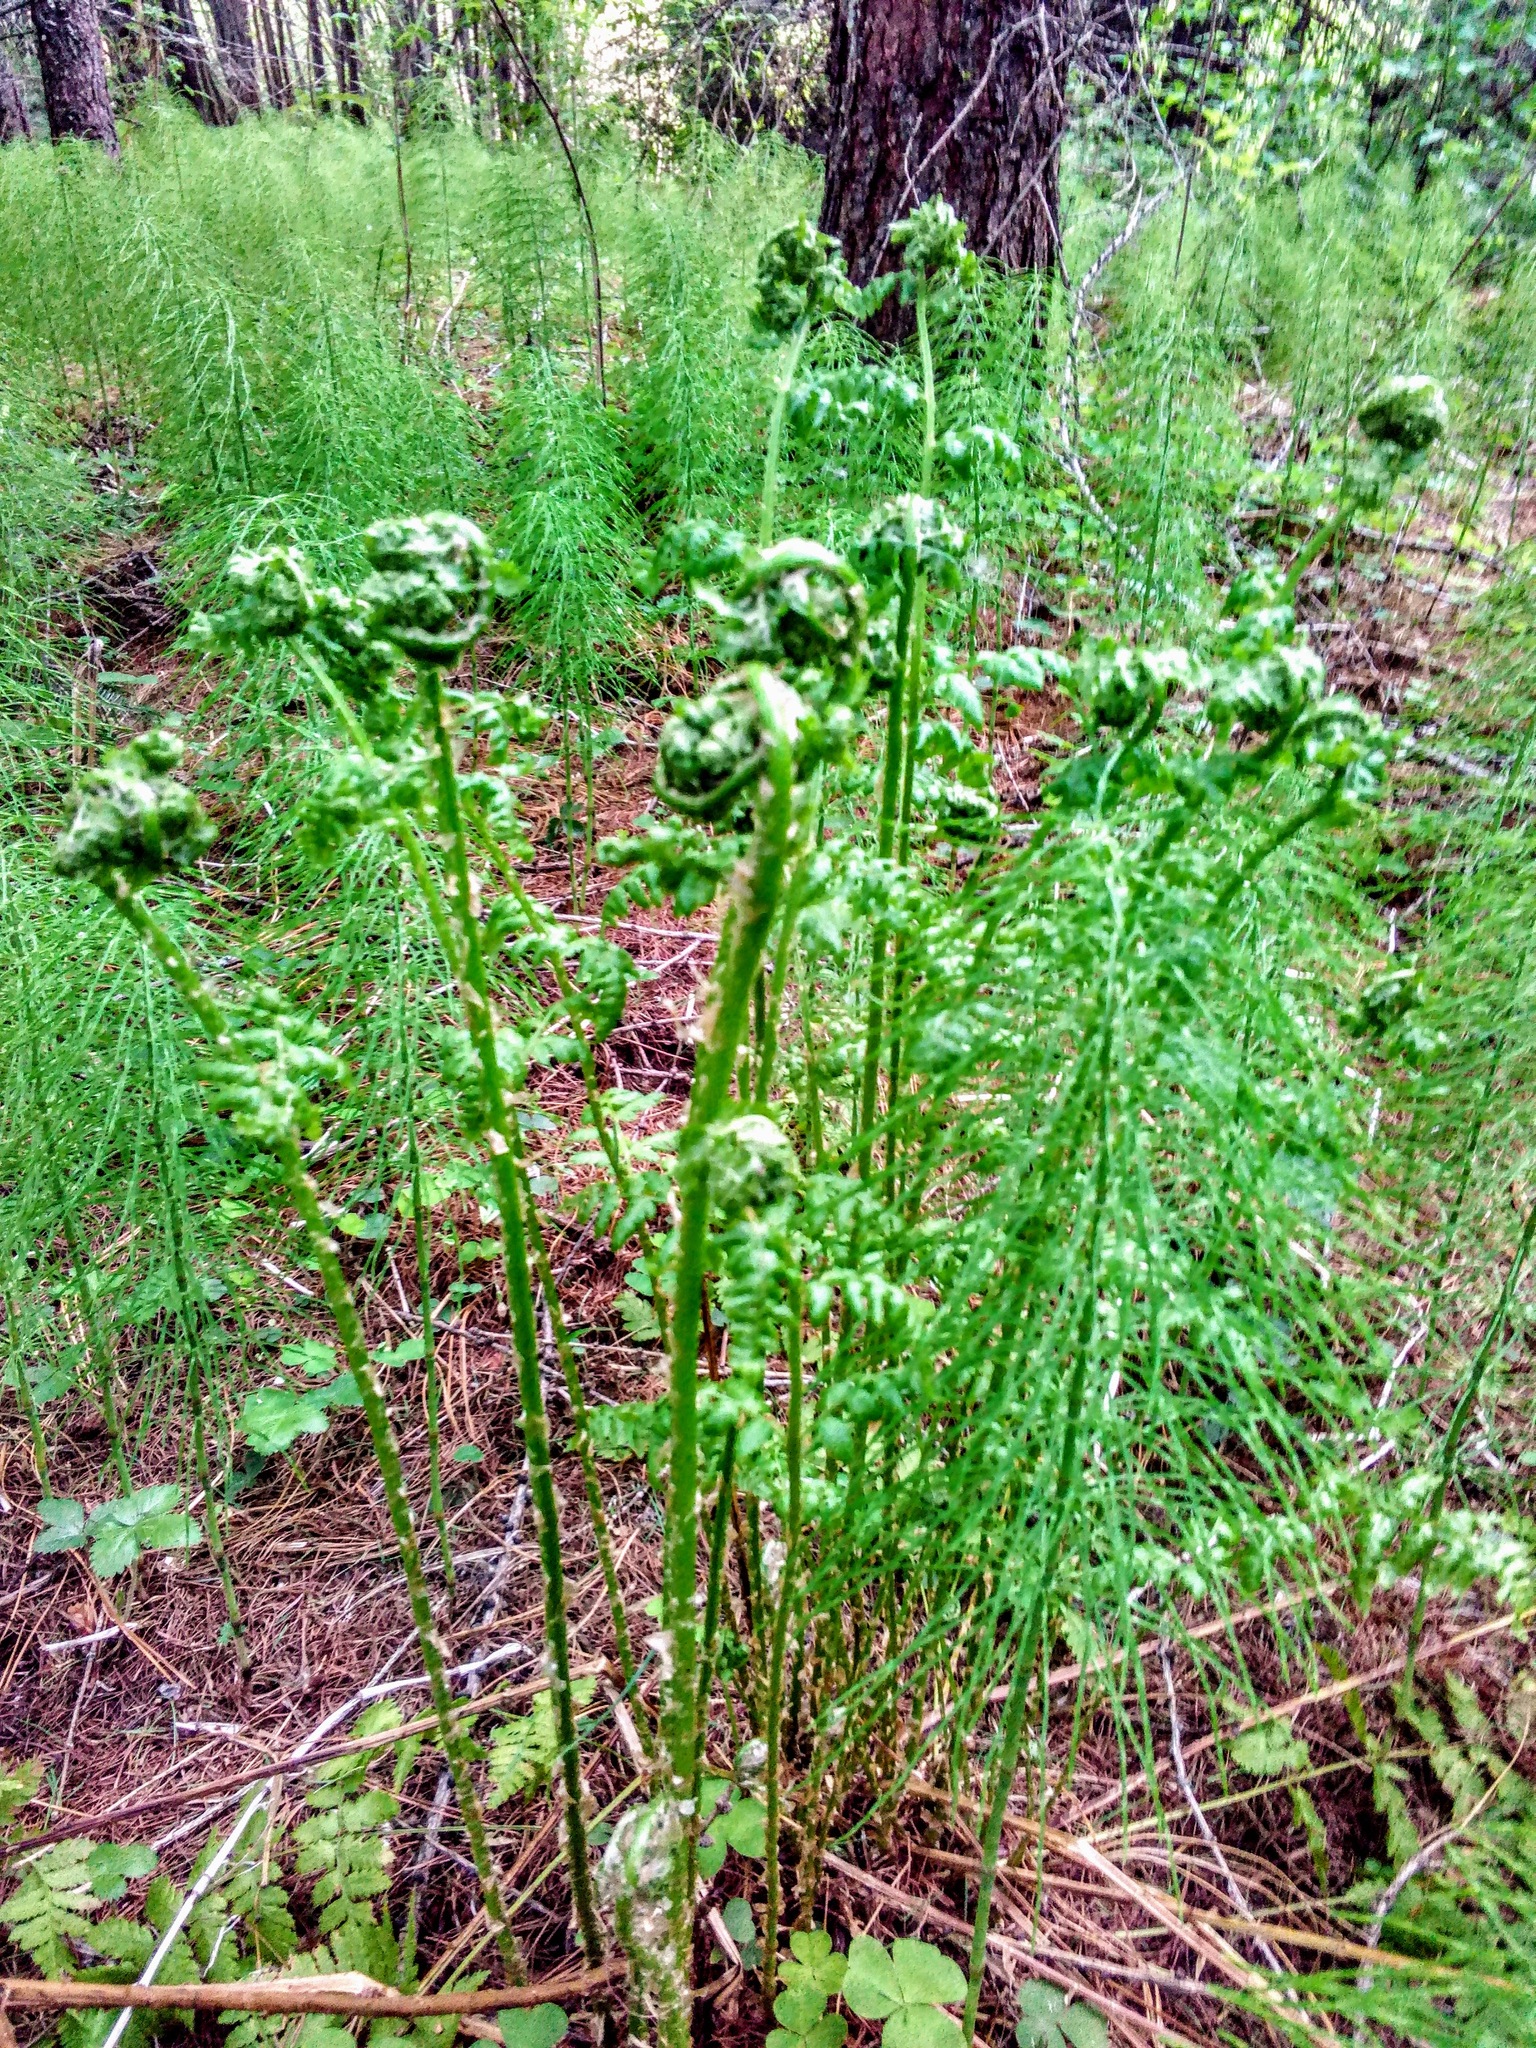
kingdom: Plantae
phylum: Tracheophyta
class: Polypodiopsida
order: Polypodiales
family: Athyriaceae
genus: Athyrium
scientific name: Athyrium filix-femina
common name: Lady fern
